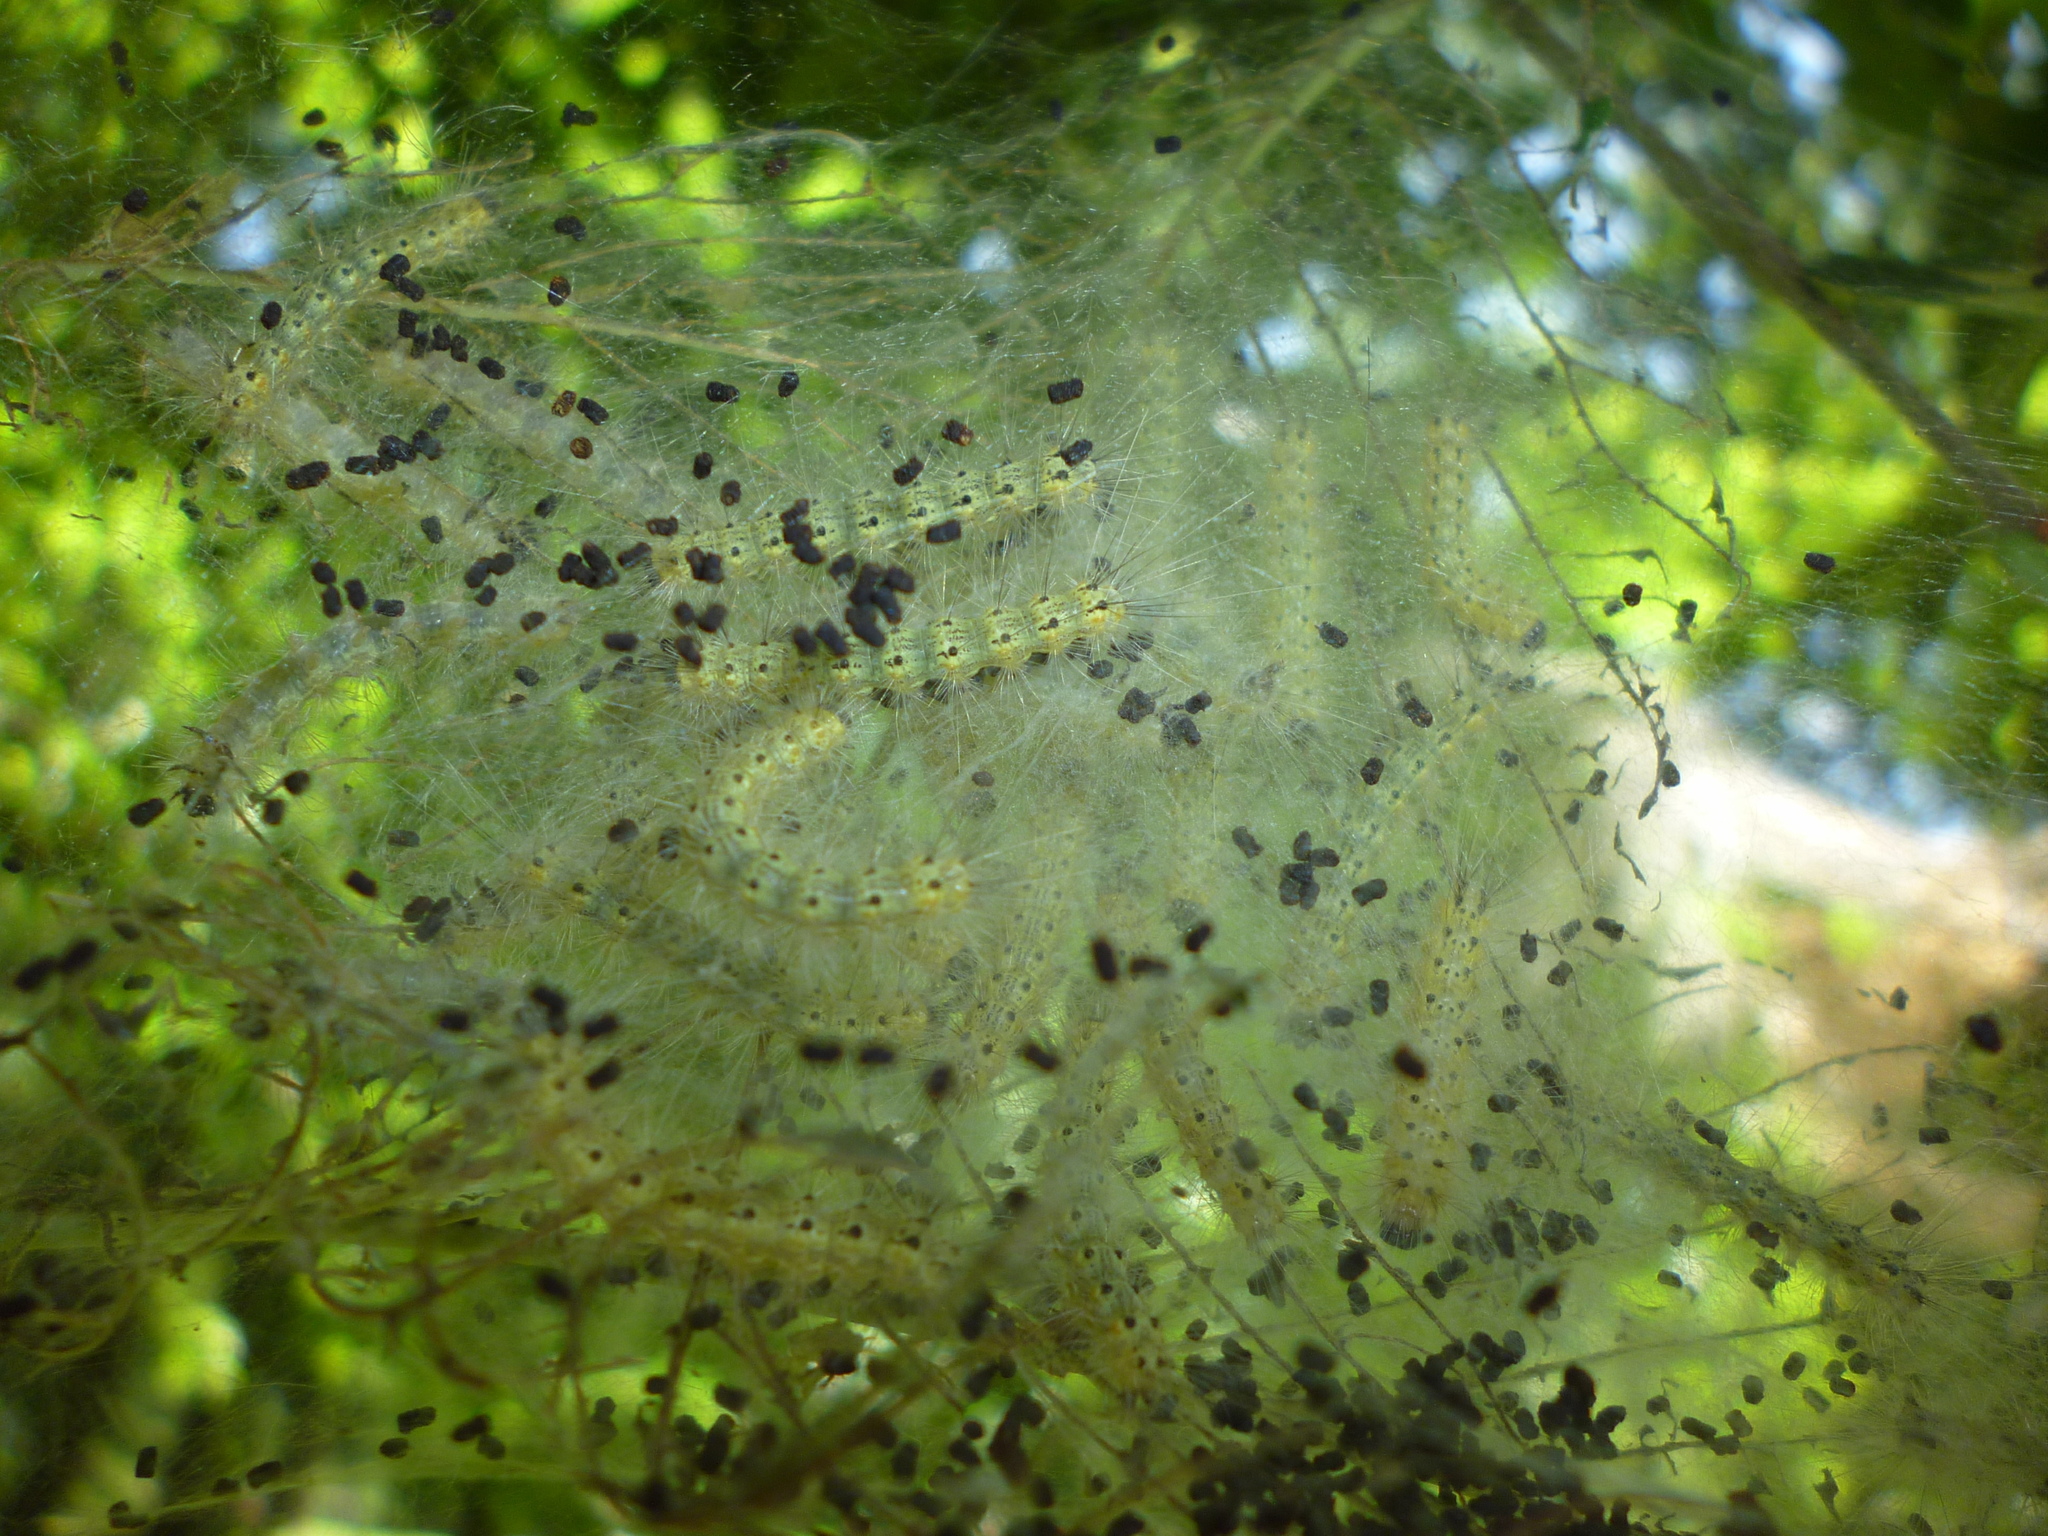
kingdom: Animalia
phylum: Arthropoda
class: Insecta
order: Lepidoptera
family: Erebidae
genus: Hyphantria
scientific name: Hyphantria cunea
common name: American white moth
